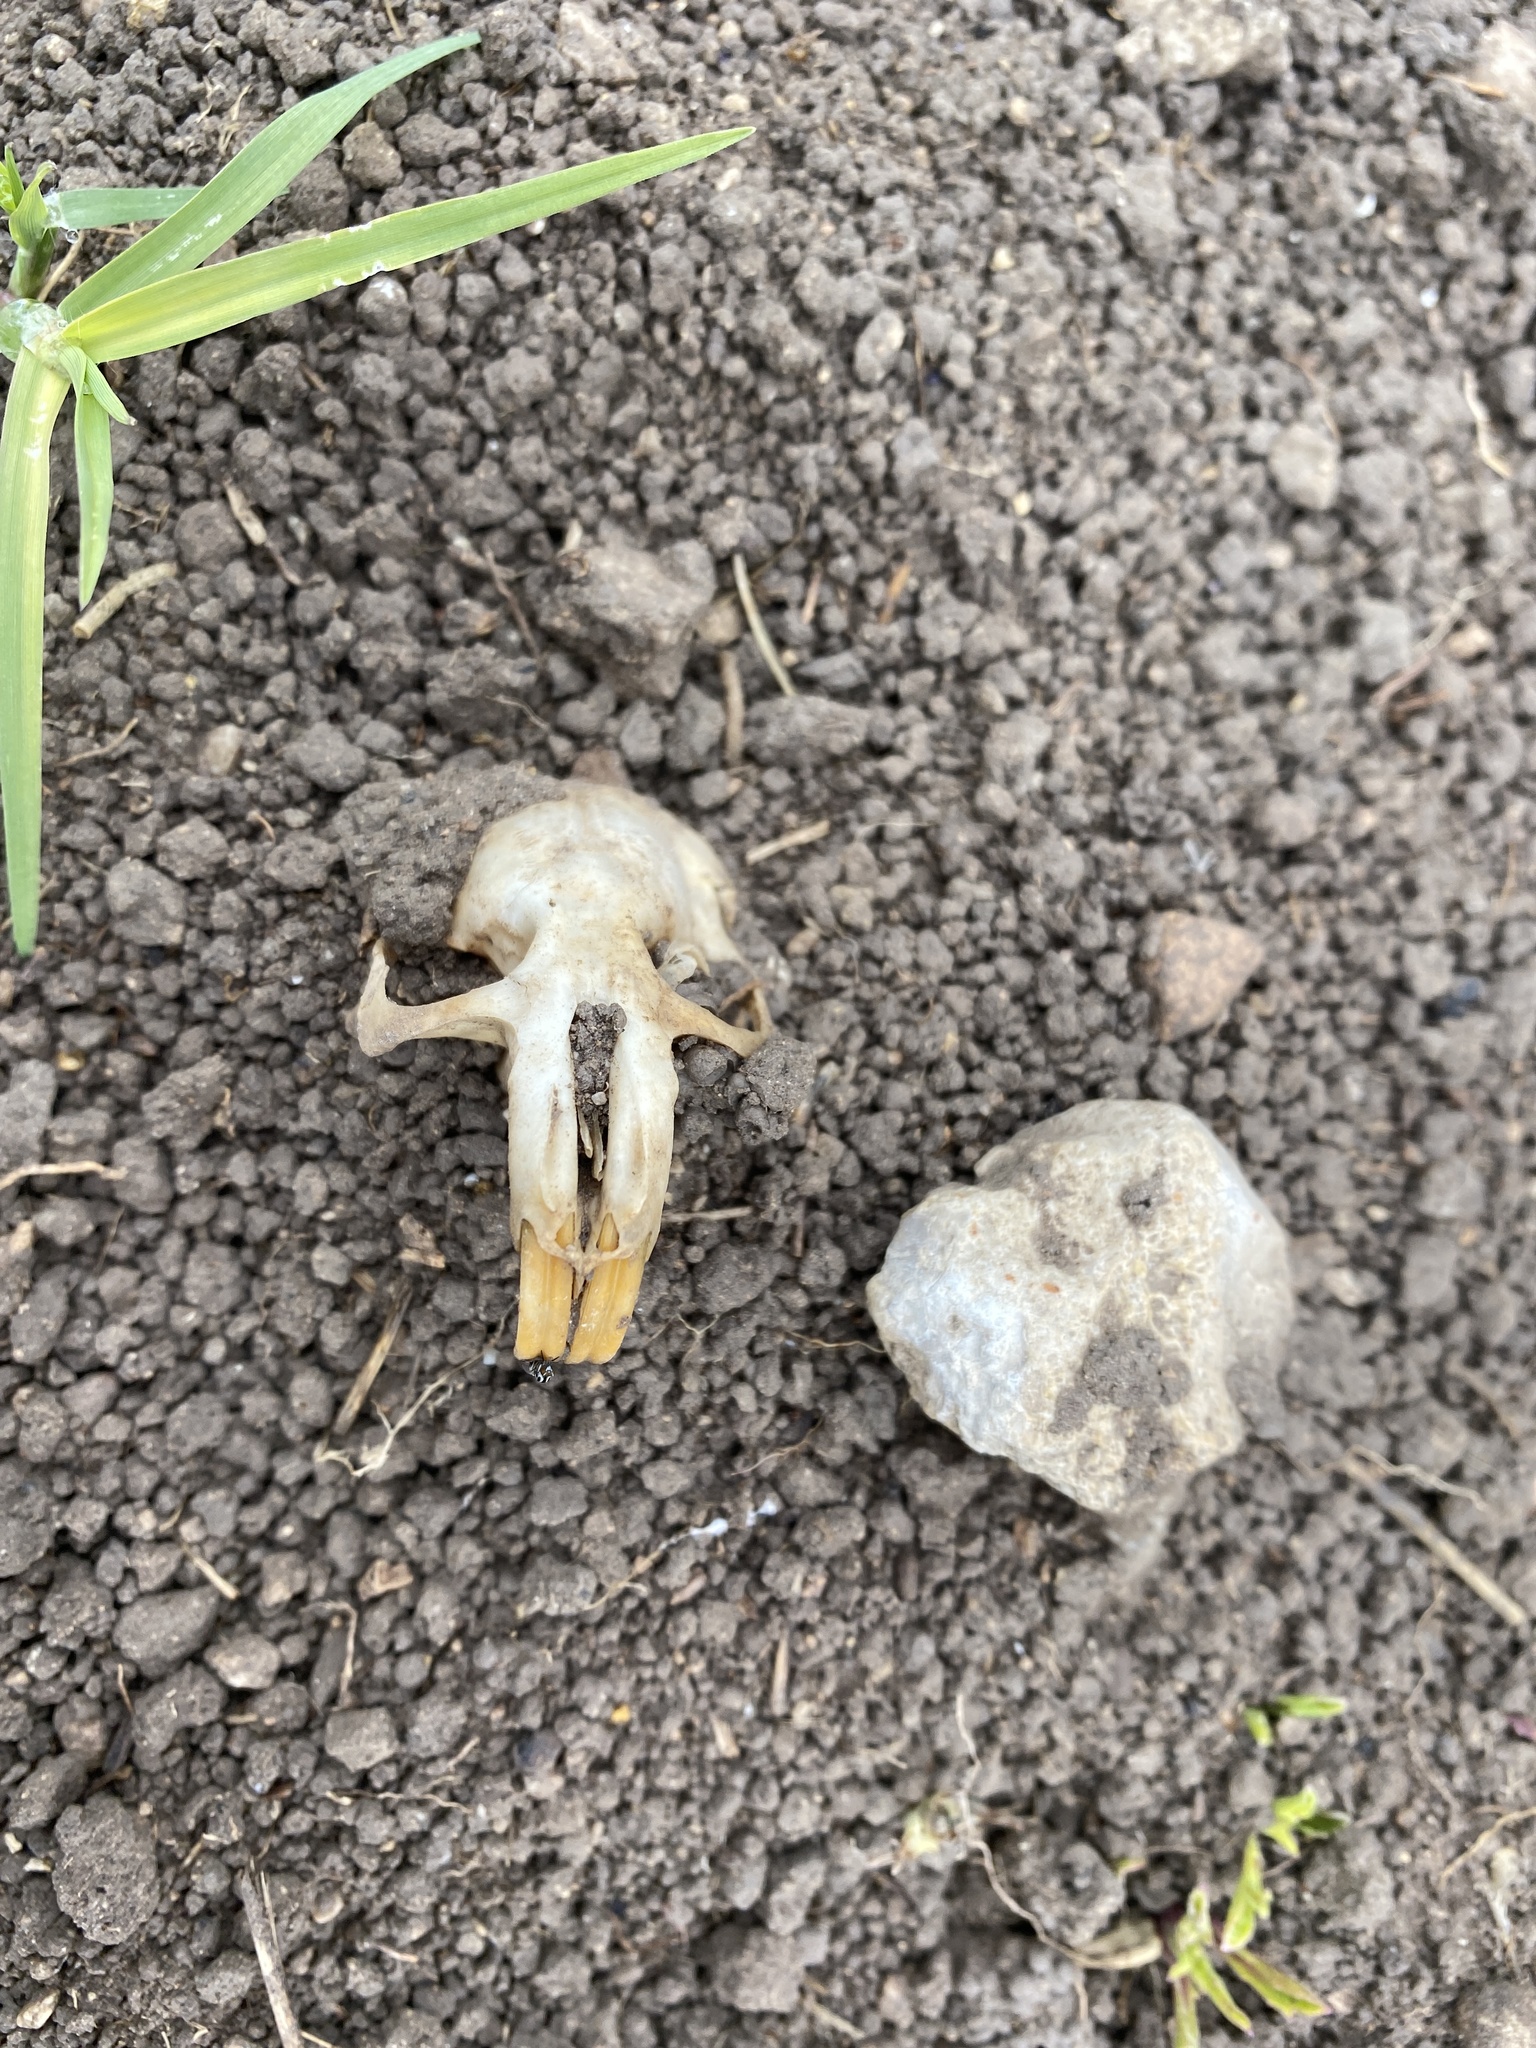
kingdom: Animalia
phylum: Chordata
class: Mammalia
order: Rodentia
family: Geomyidae
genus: Cratogeomys
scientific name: Cratogeomys castanops
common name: Yellow-faced pocket gopher
